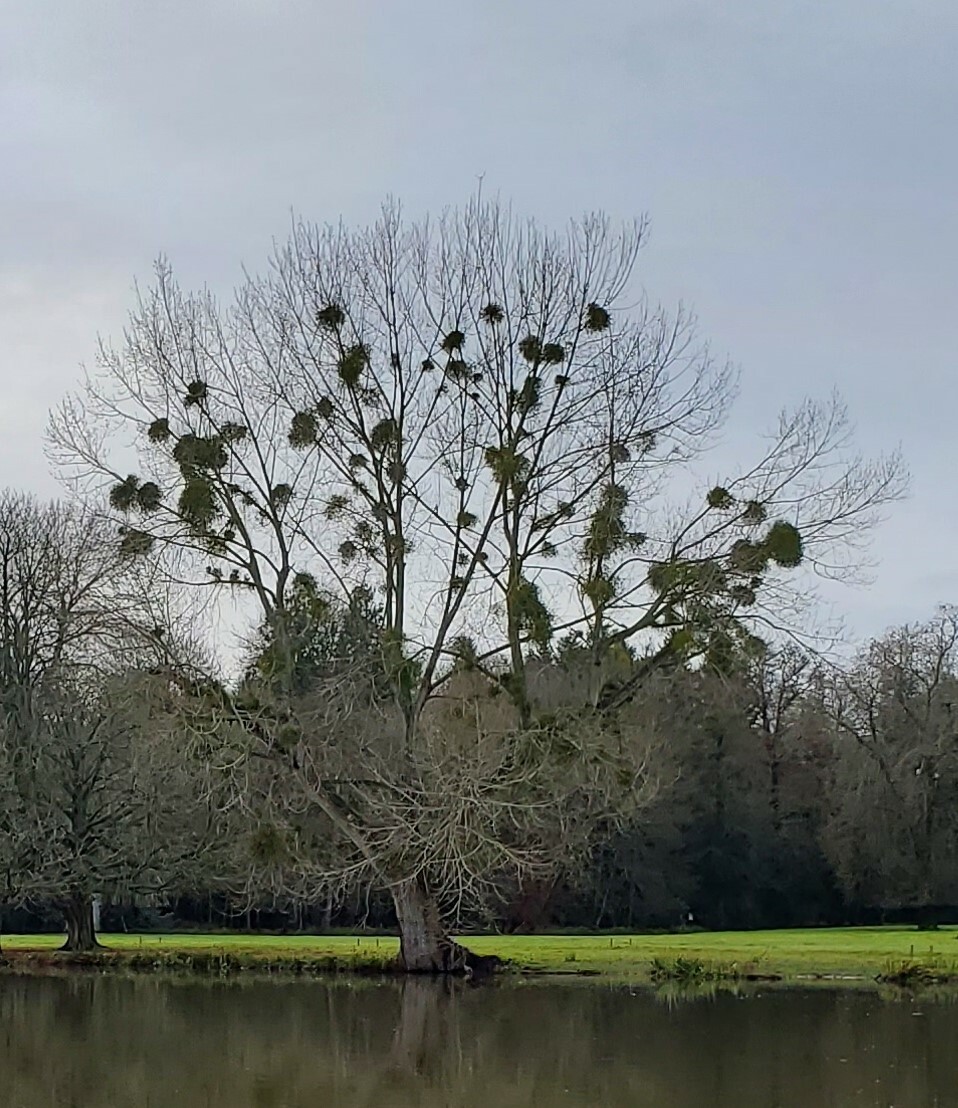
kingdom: Plantae
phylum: Tracheophyta
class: Magnoliopsida
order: Santalales
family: Viscaceae
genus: Viscum
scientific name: Viscum album
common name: Mistletoe
